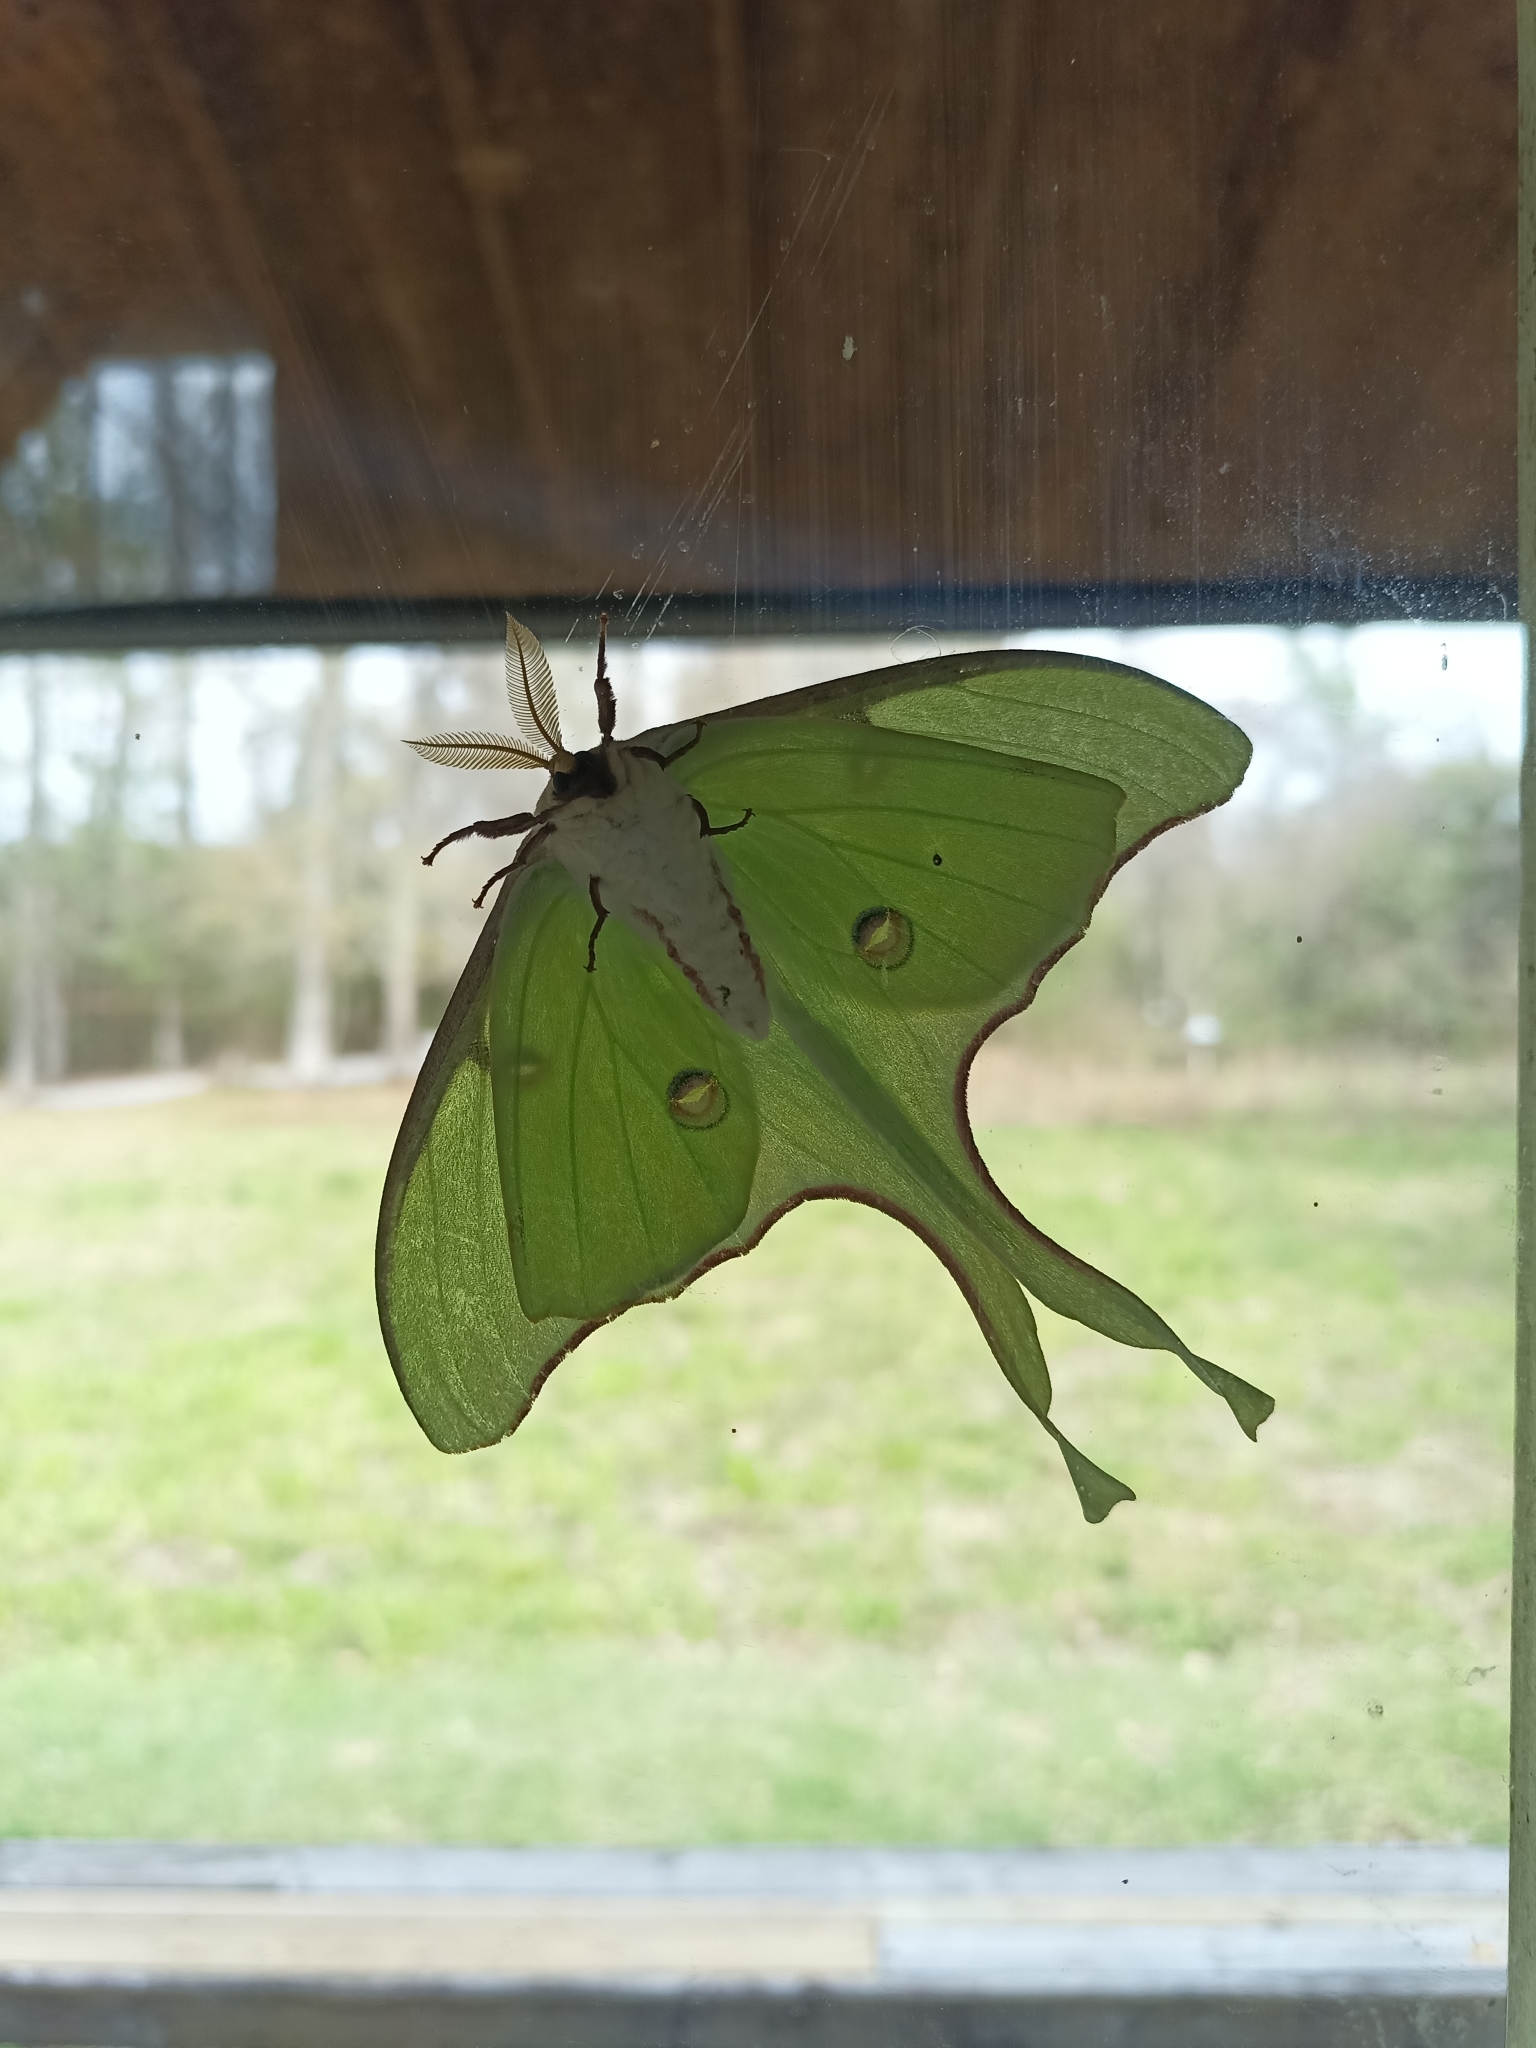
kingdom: Animalia
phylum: Arthropoda
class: Insecta
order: Lepidoptera
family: Saturniidae
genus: Actias
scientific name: Actias luna
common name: Luna moth
